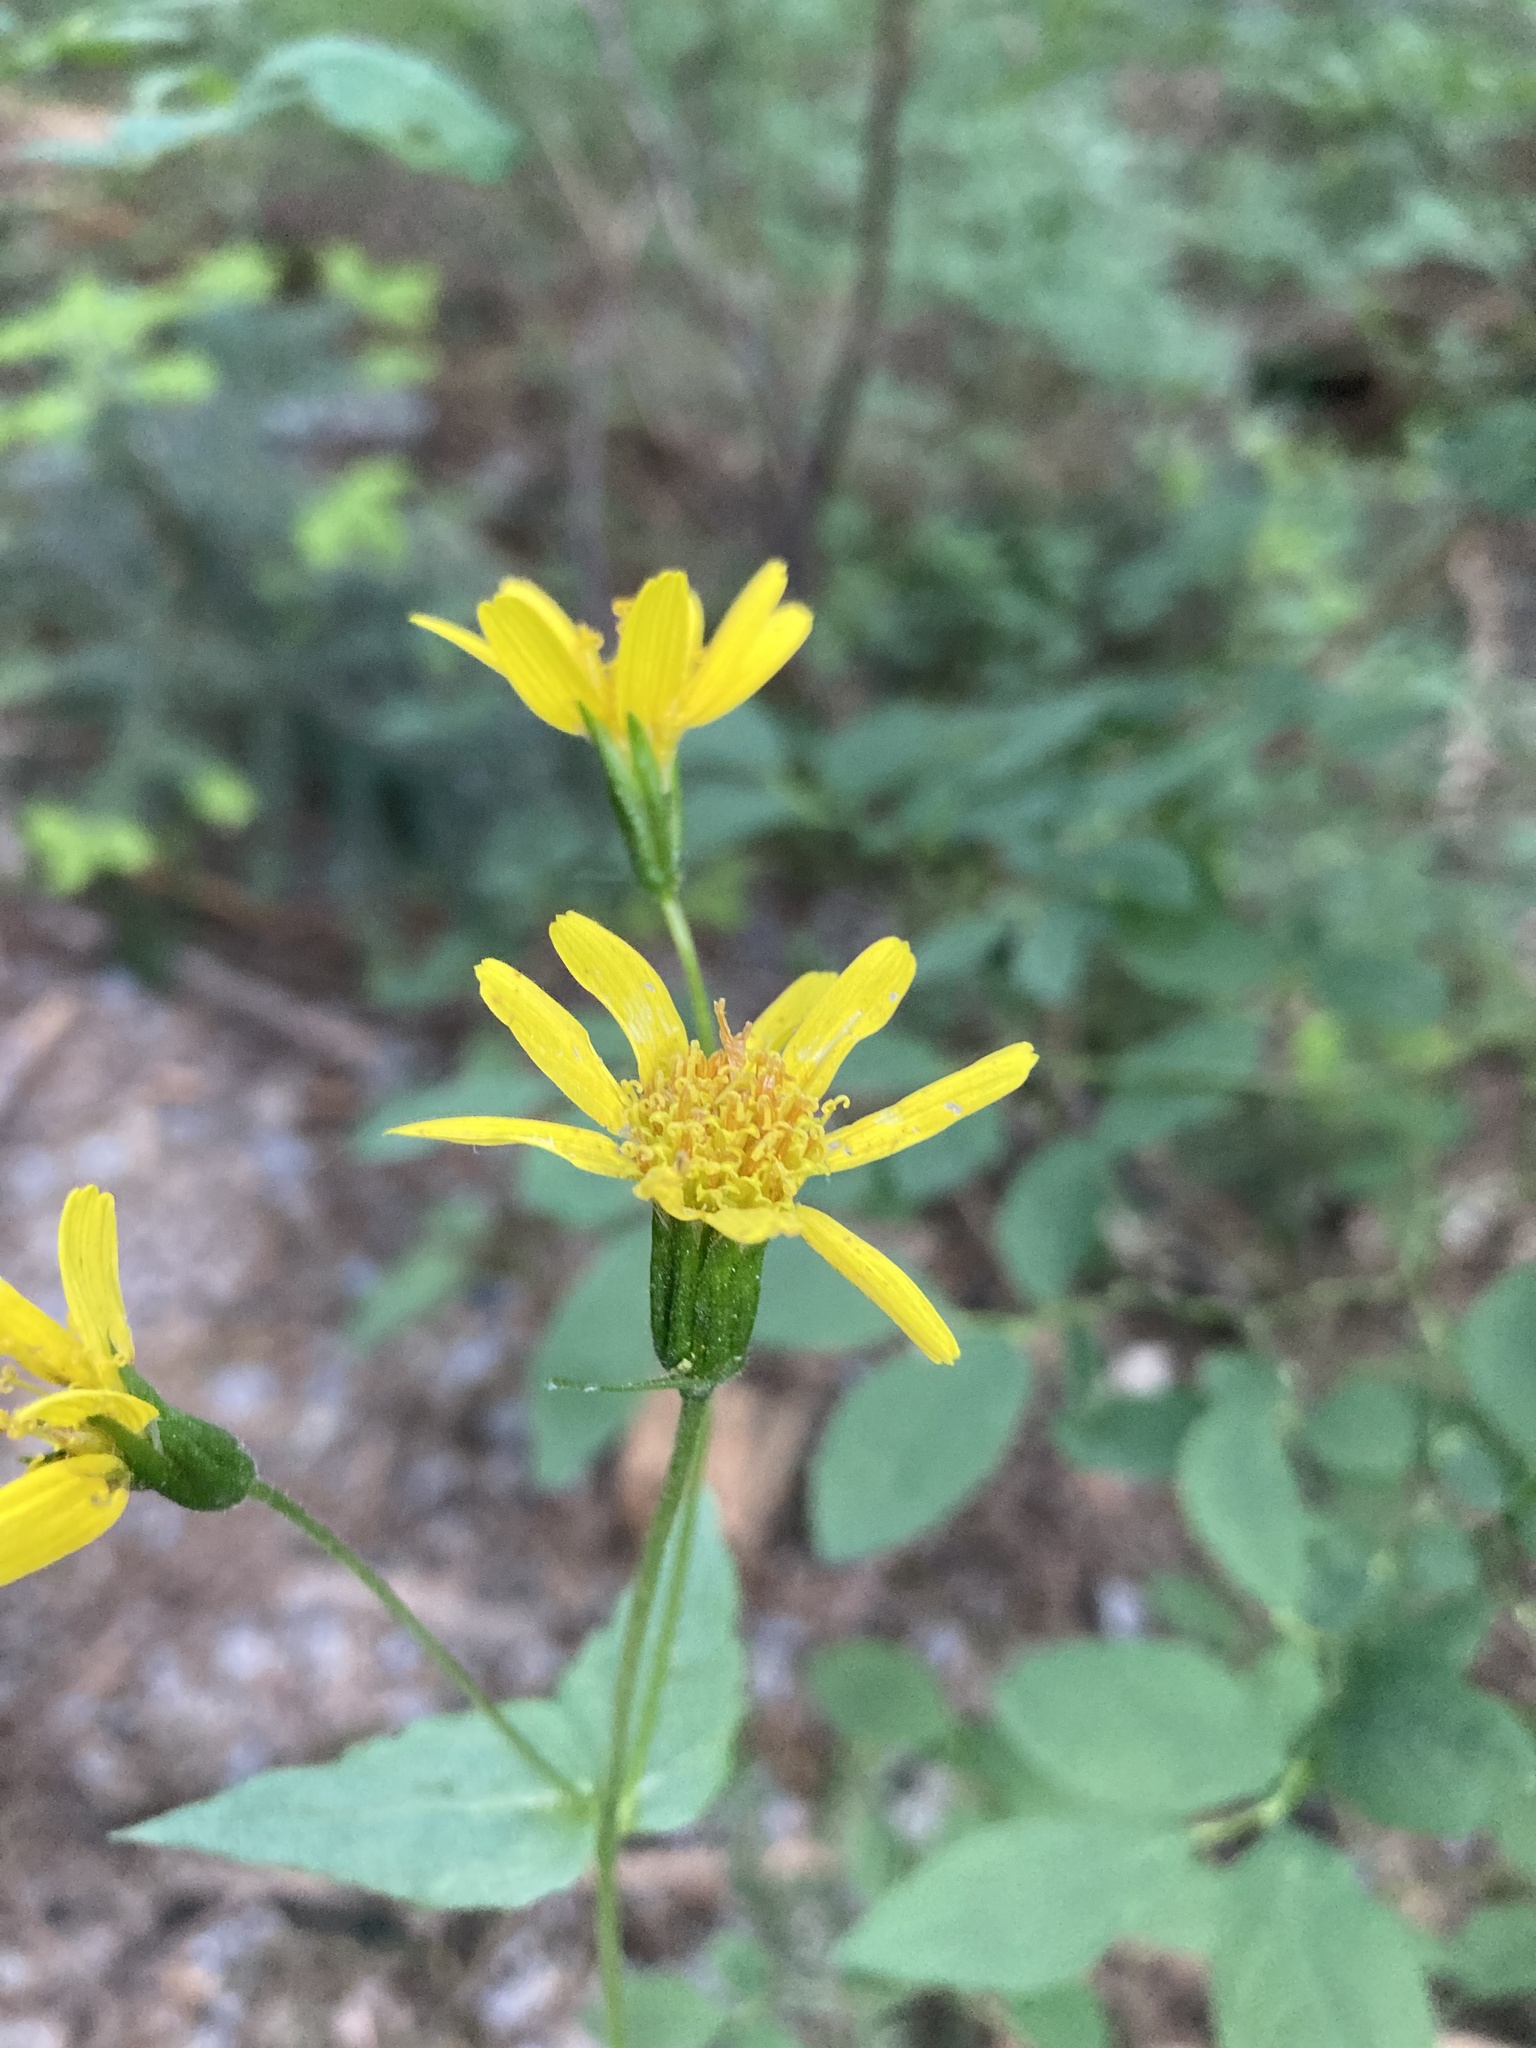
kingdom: Plantae
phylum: Tracheophyta
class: Magnoliopsida
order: Asterales
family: Asteraceae
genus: Arnica
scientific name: Arnica latifolia
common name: Arnica
